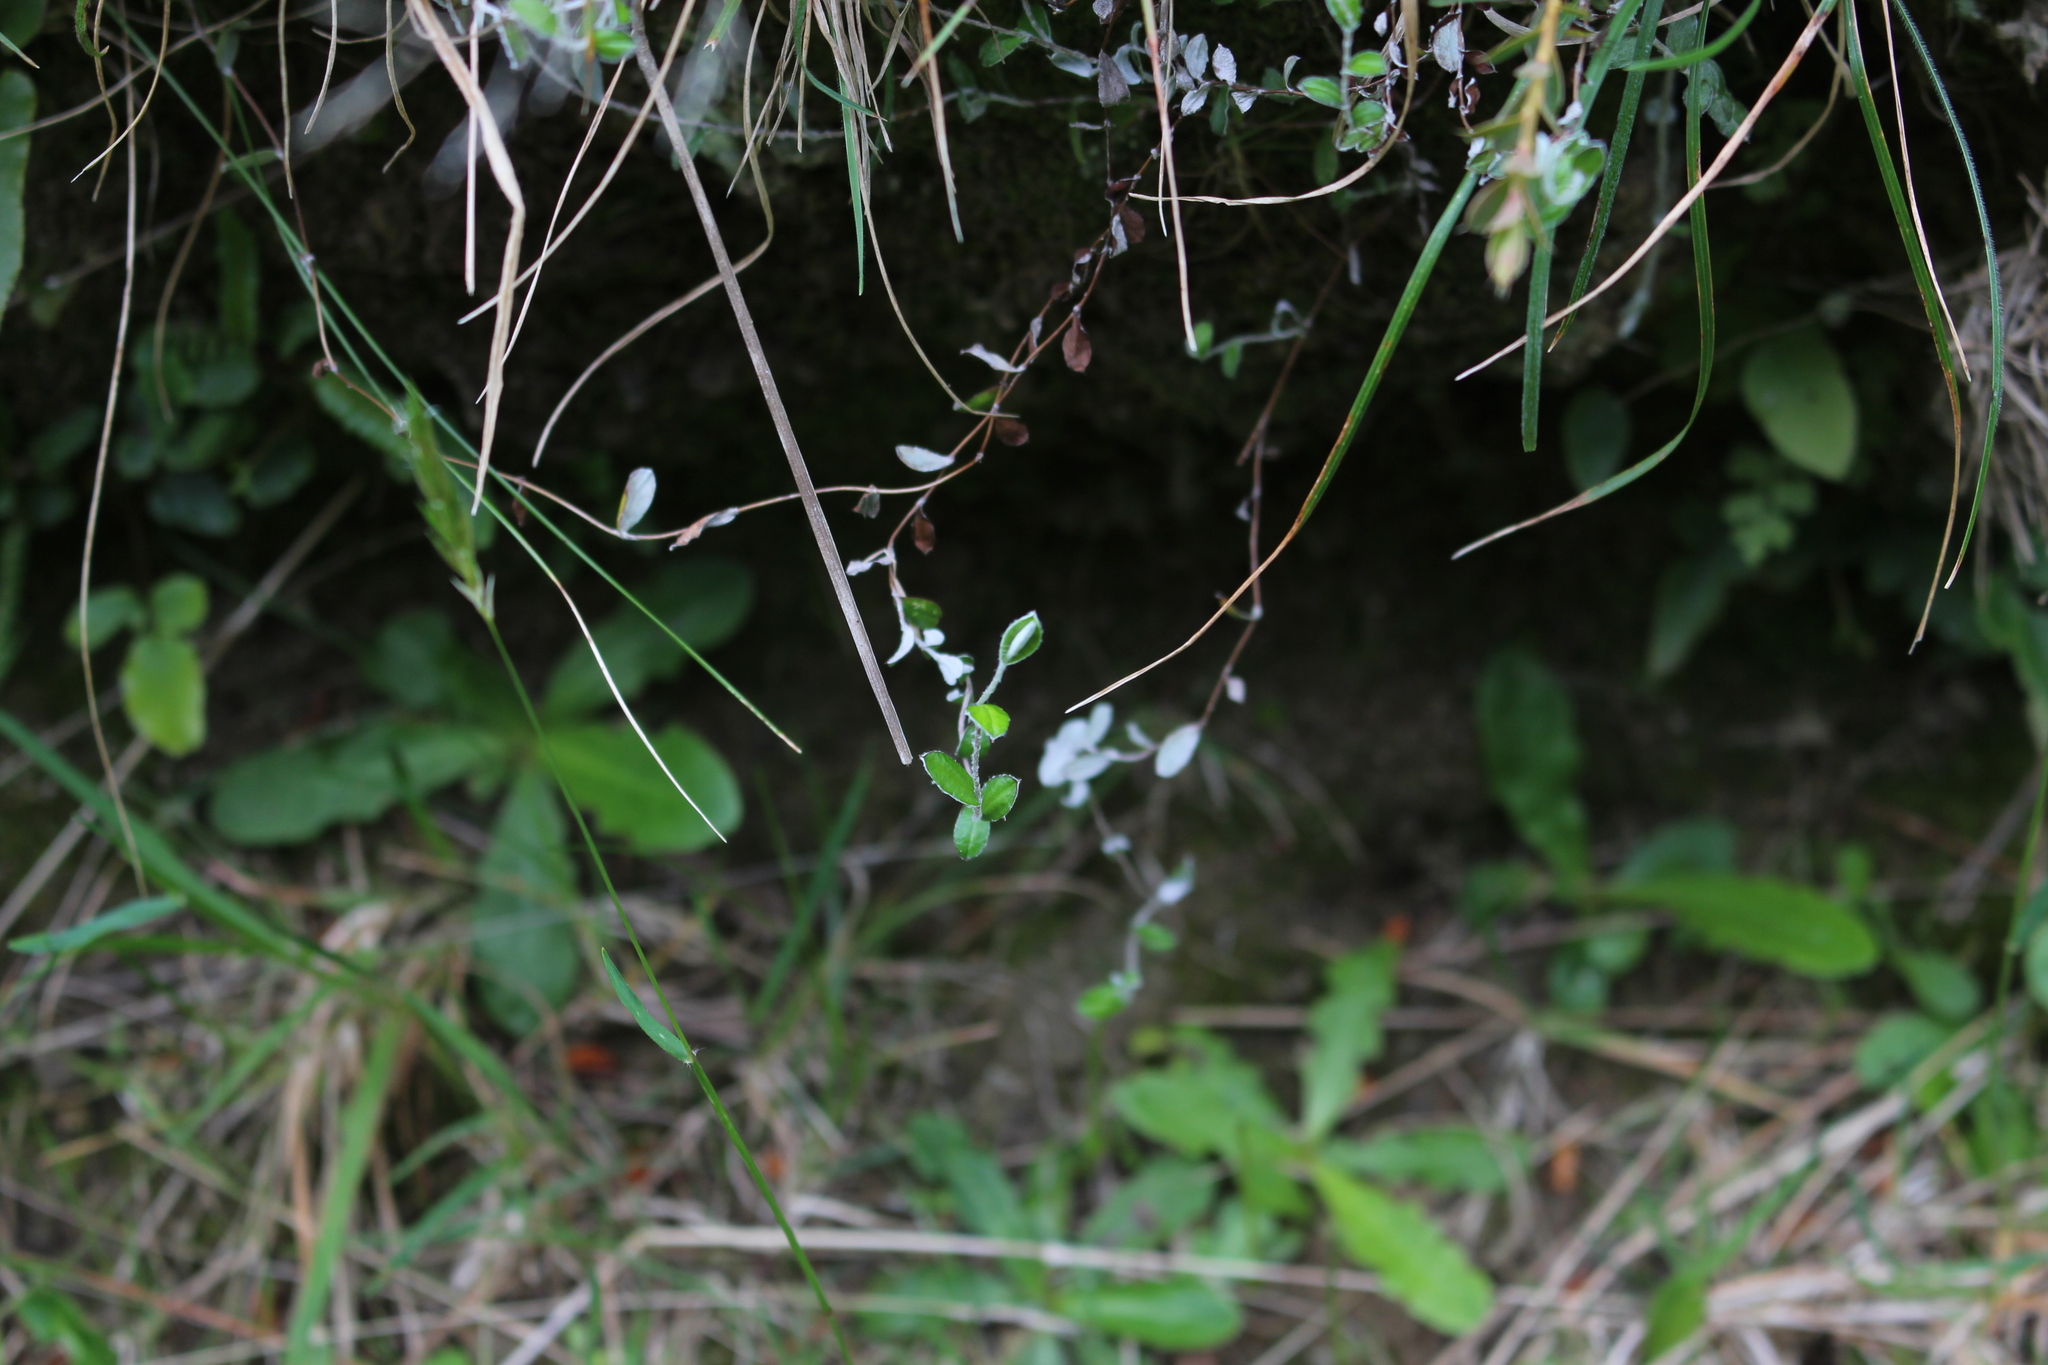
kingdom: Plantae
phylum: Tracheophyta
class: Magnoliopsida
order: Asterales
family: Asteraceae
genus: Helichrysum
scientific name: Helichrysum filicaule
